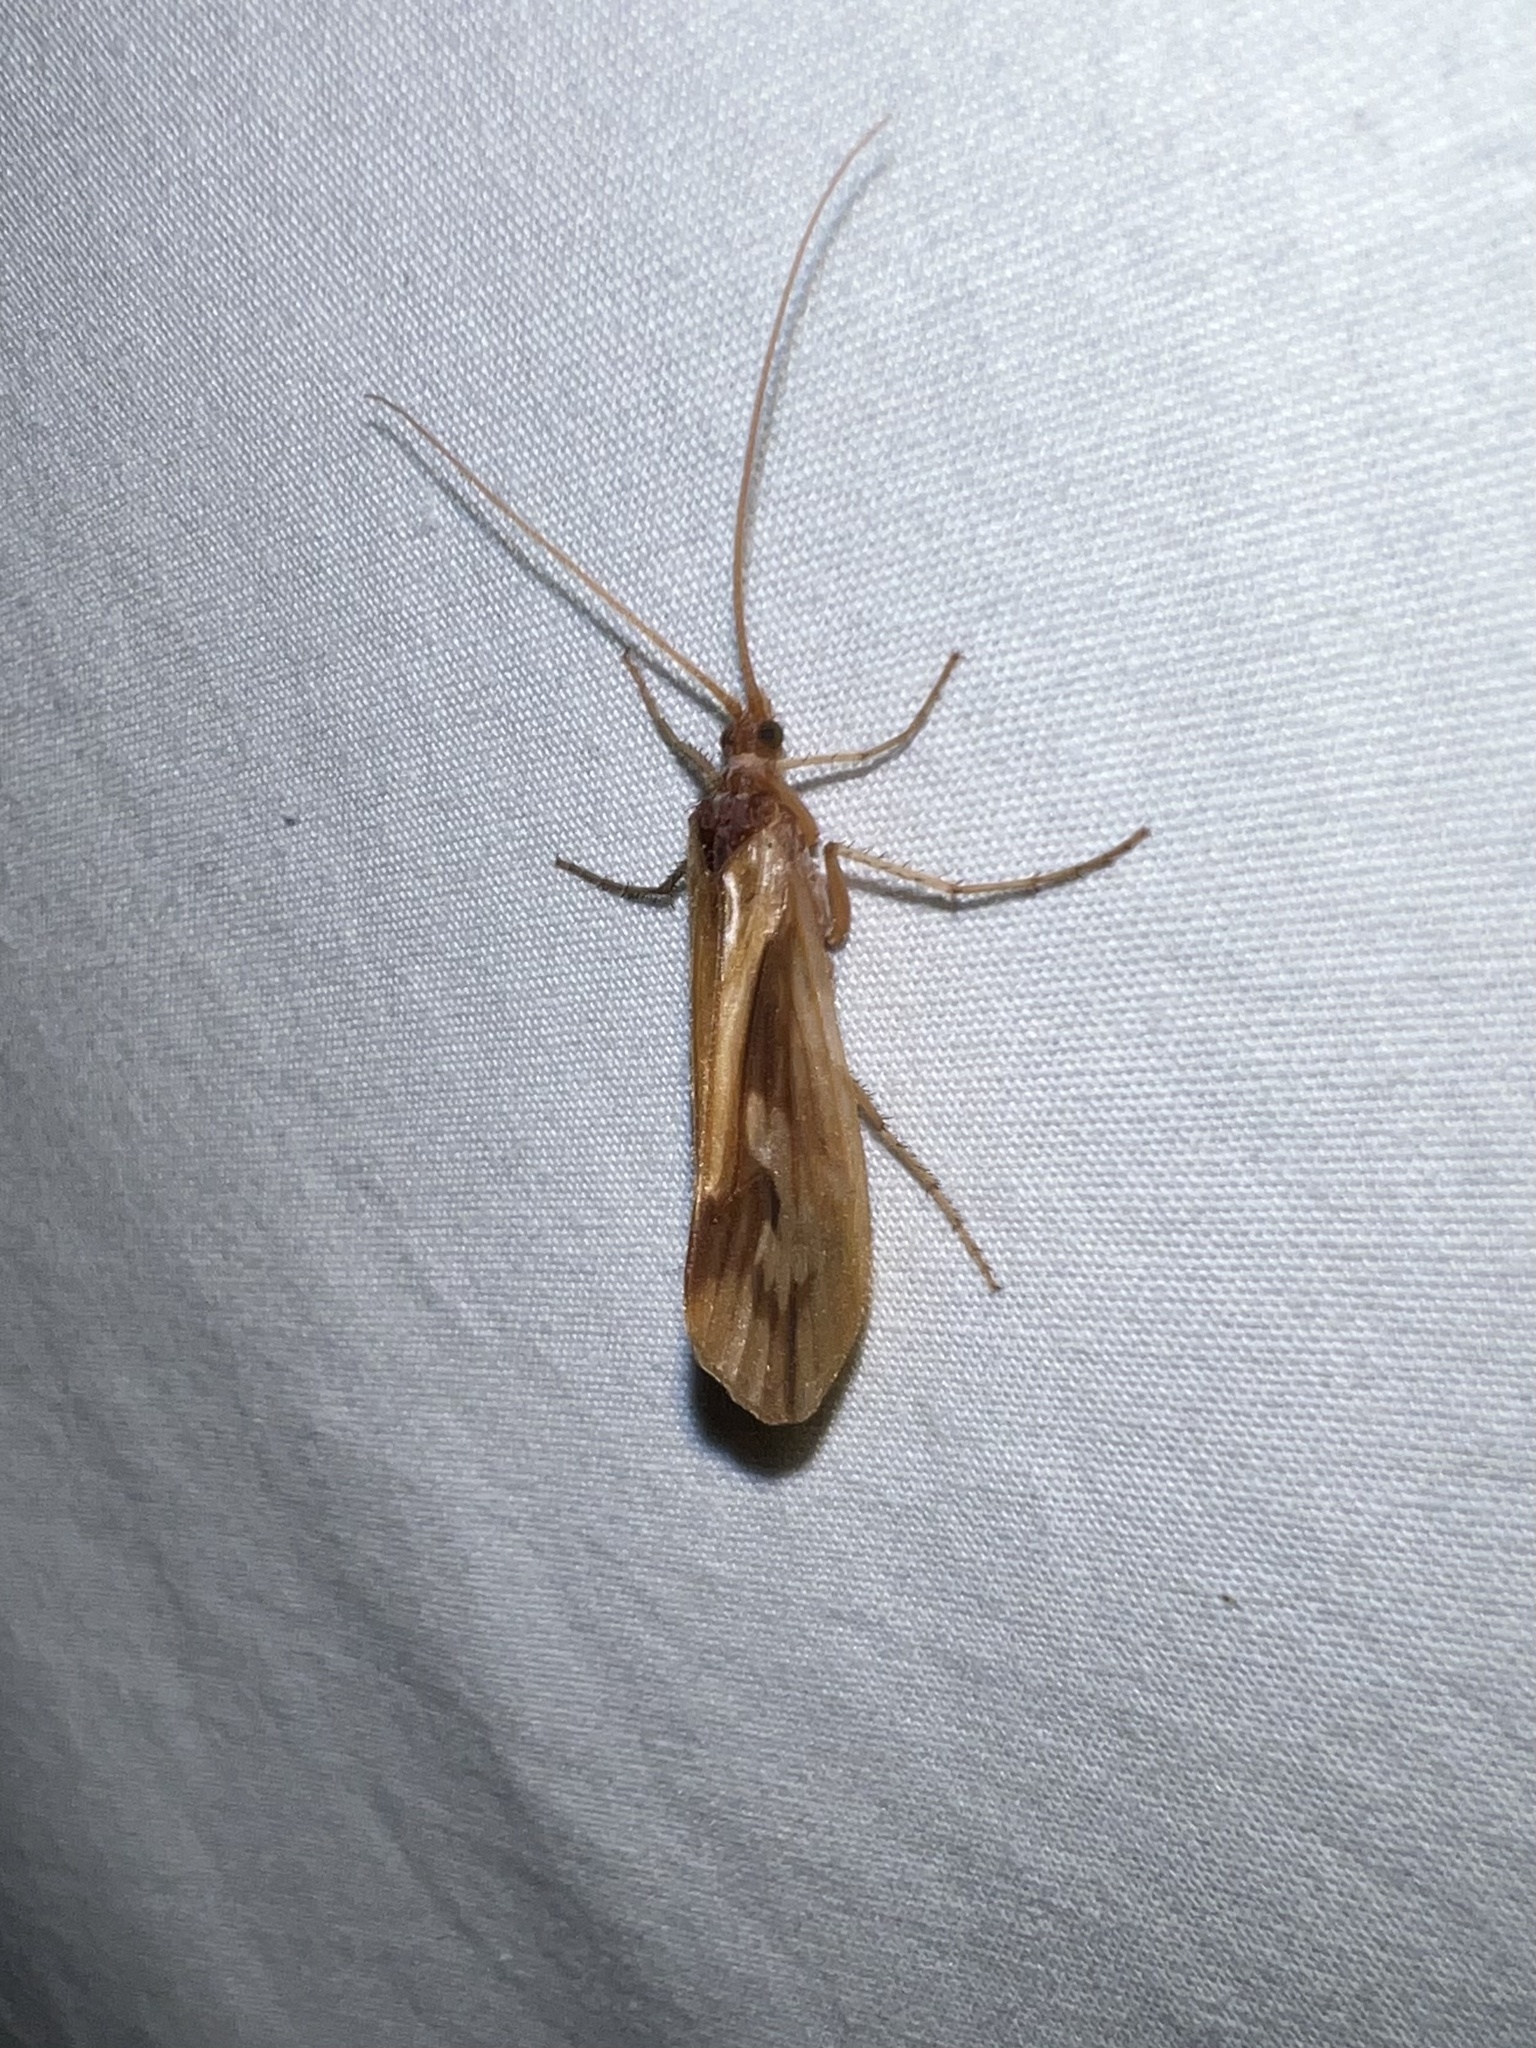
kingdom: Animalia
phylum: Arthropoda
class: Insecta
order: Trichoptera
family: Limnephilidae
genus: Platycentropus
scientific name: Platycentropus radiatus
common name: Chocolate-and-cream sedge
